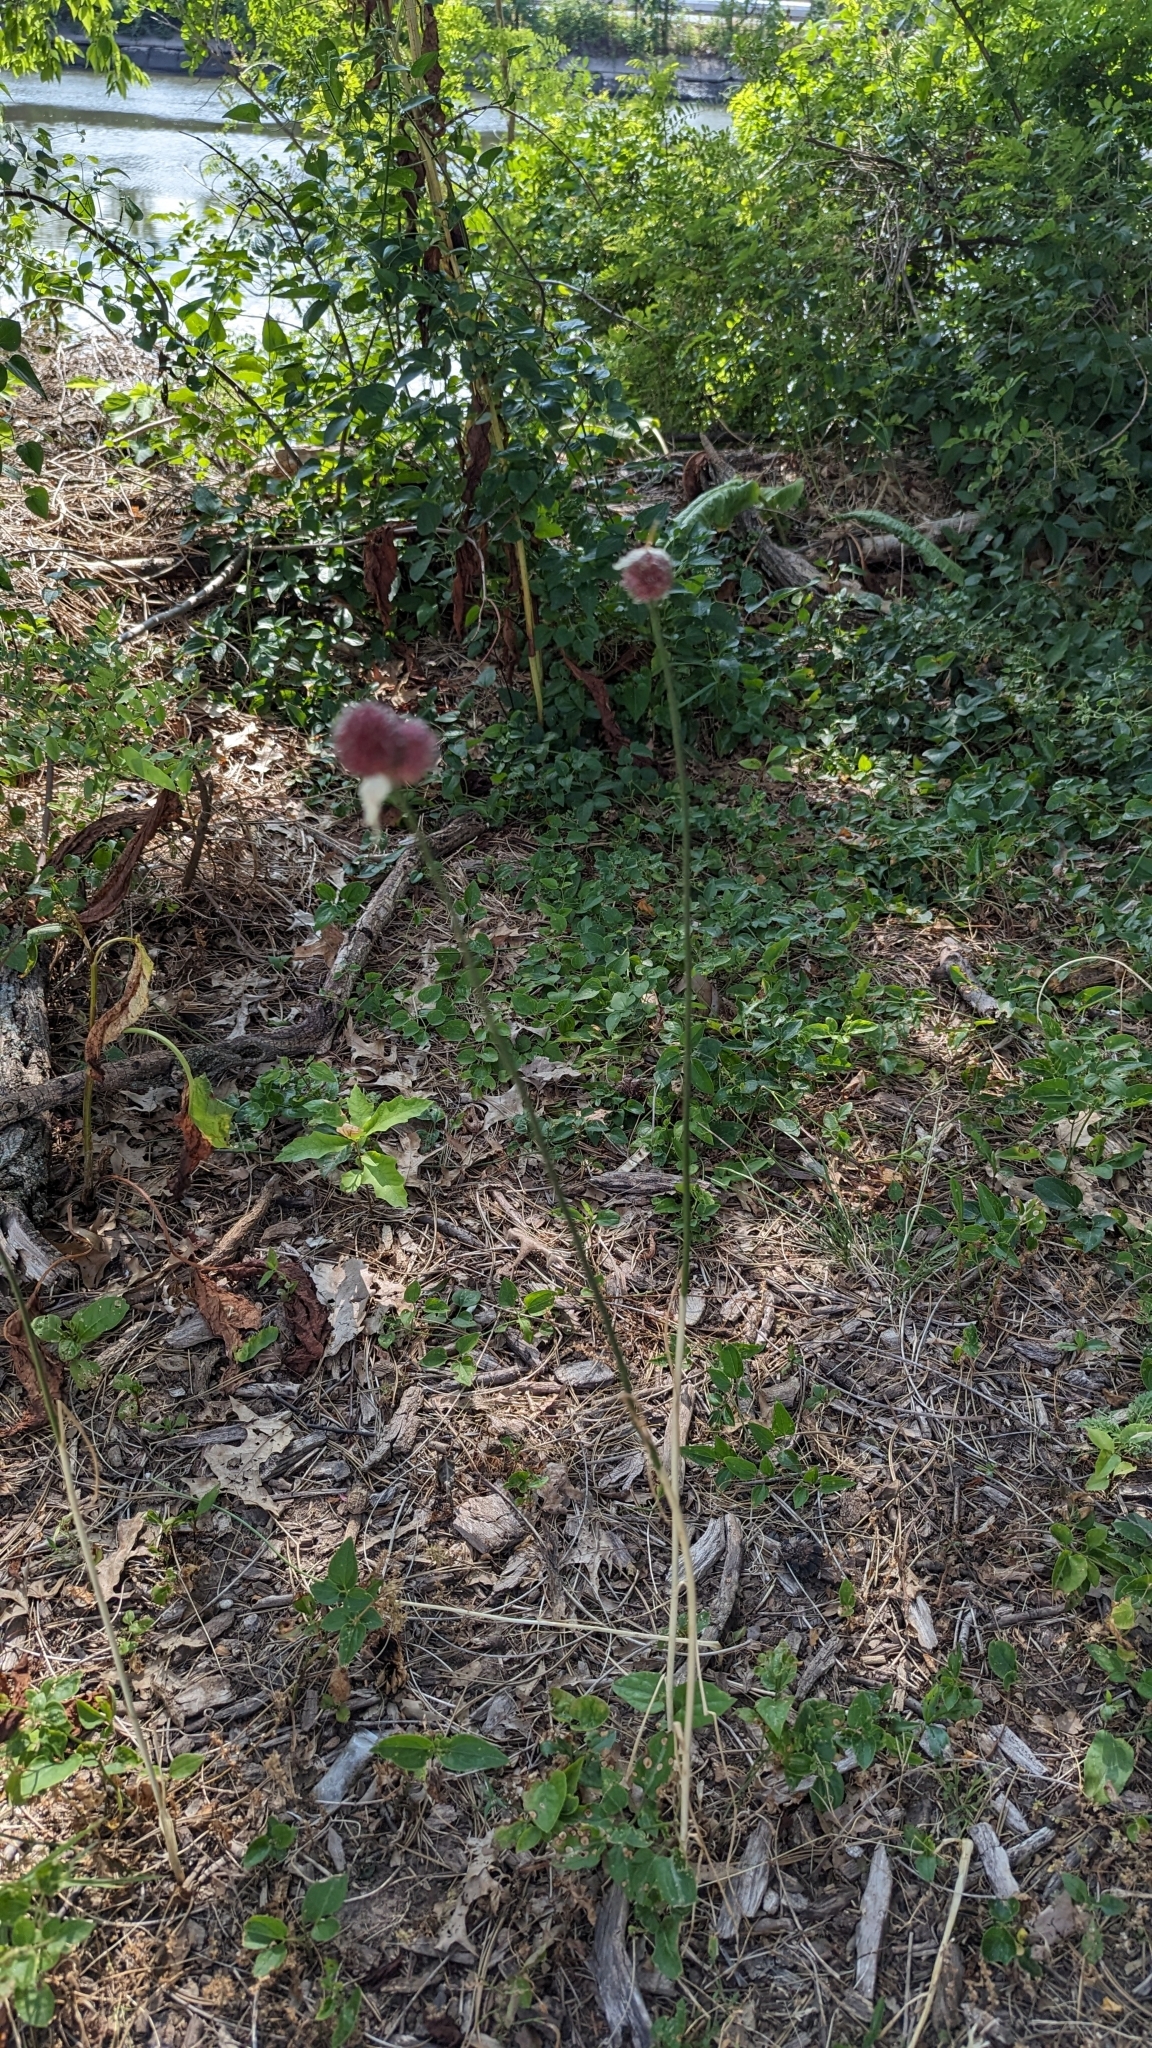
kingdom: Plantae
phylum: Tracheophyta
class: Liliopsida
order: Asparagales
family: Amaryllidaceae
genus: Allium
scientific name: Allium vineale
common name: Crow garlic
